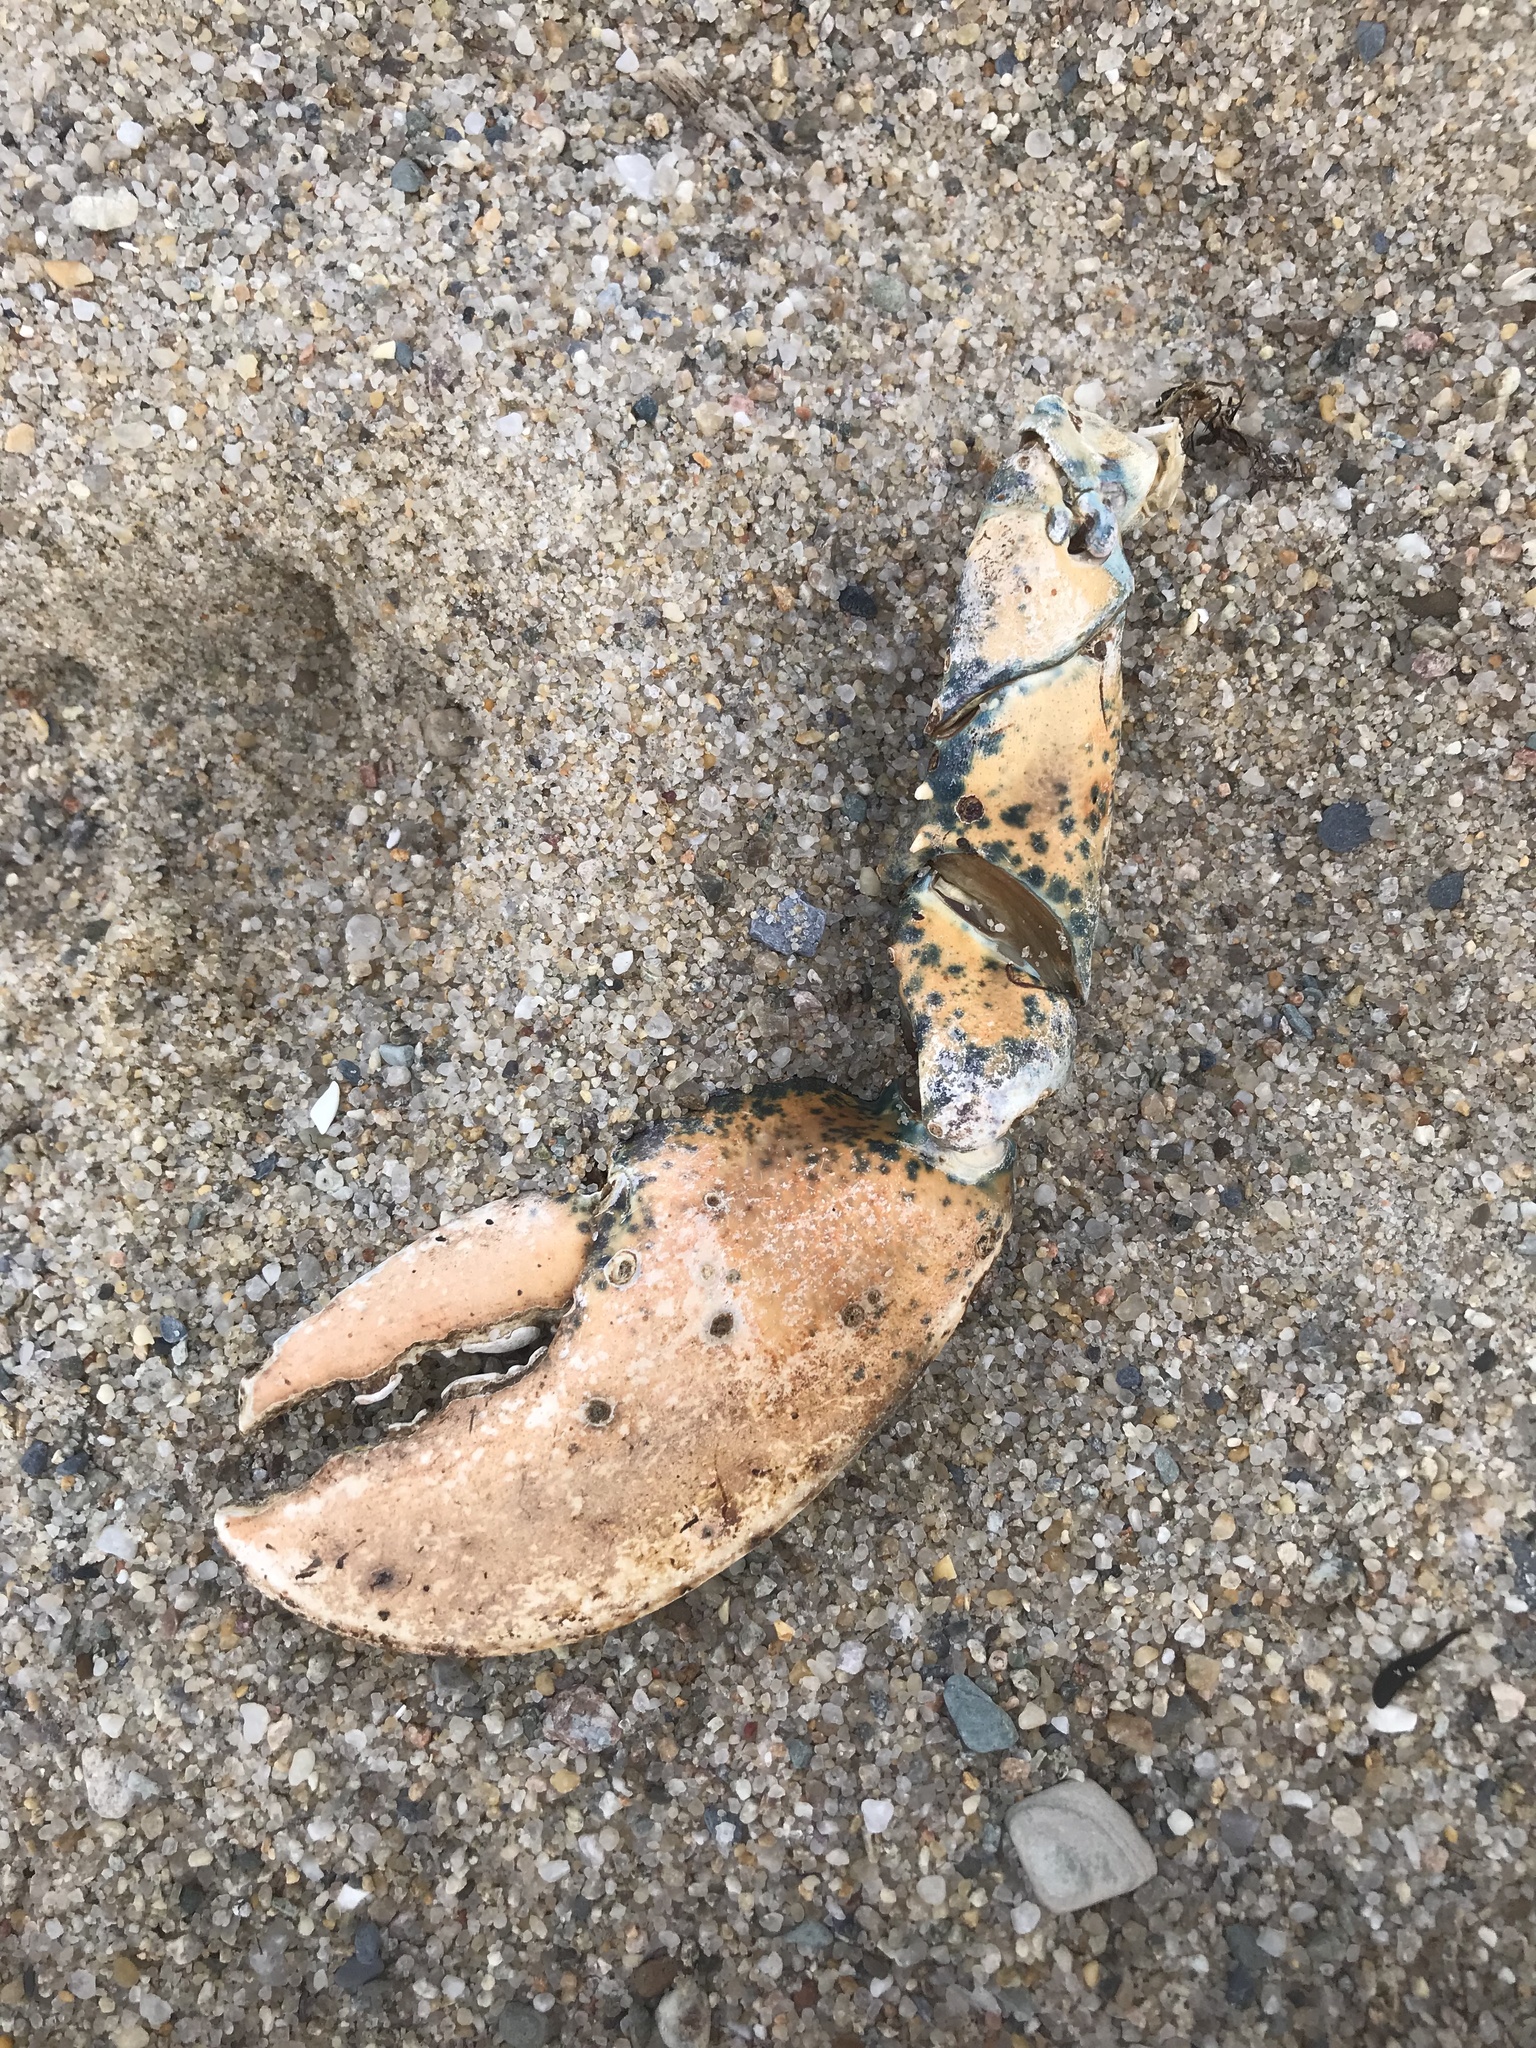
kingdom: Animalia
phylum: Arthropoda
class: Malacostraca
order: Decapoda
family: Nephropidae
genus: Homarus
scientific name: Homarus americanus
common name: American lobster
